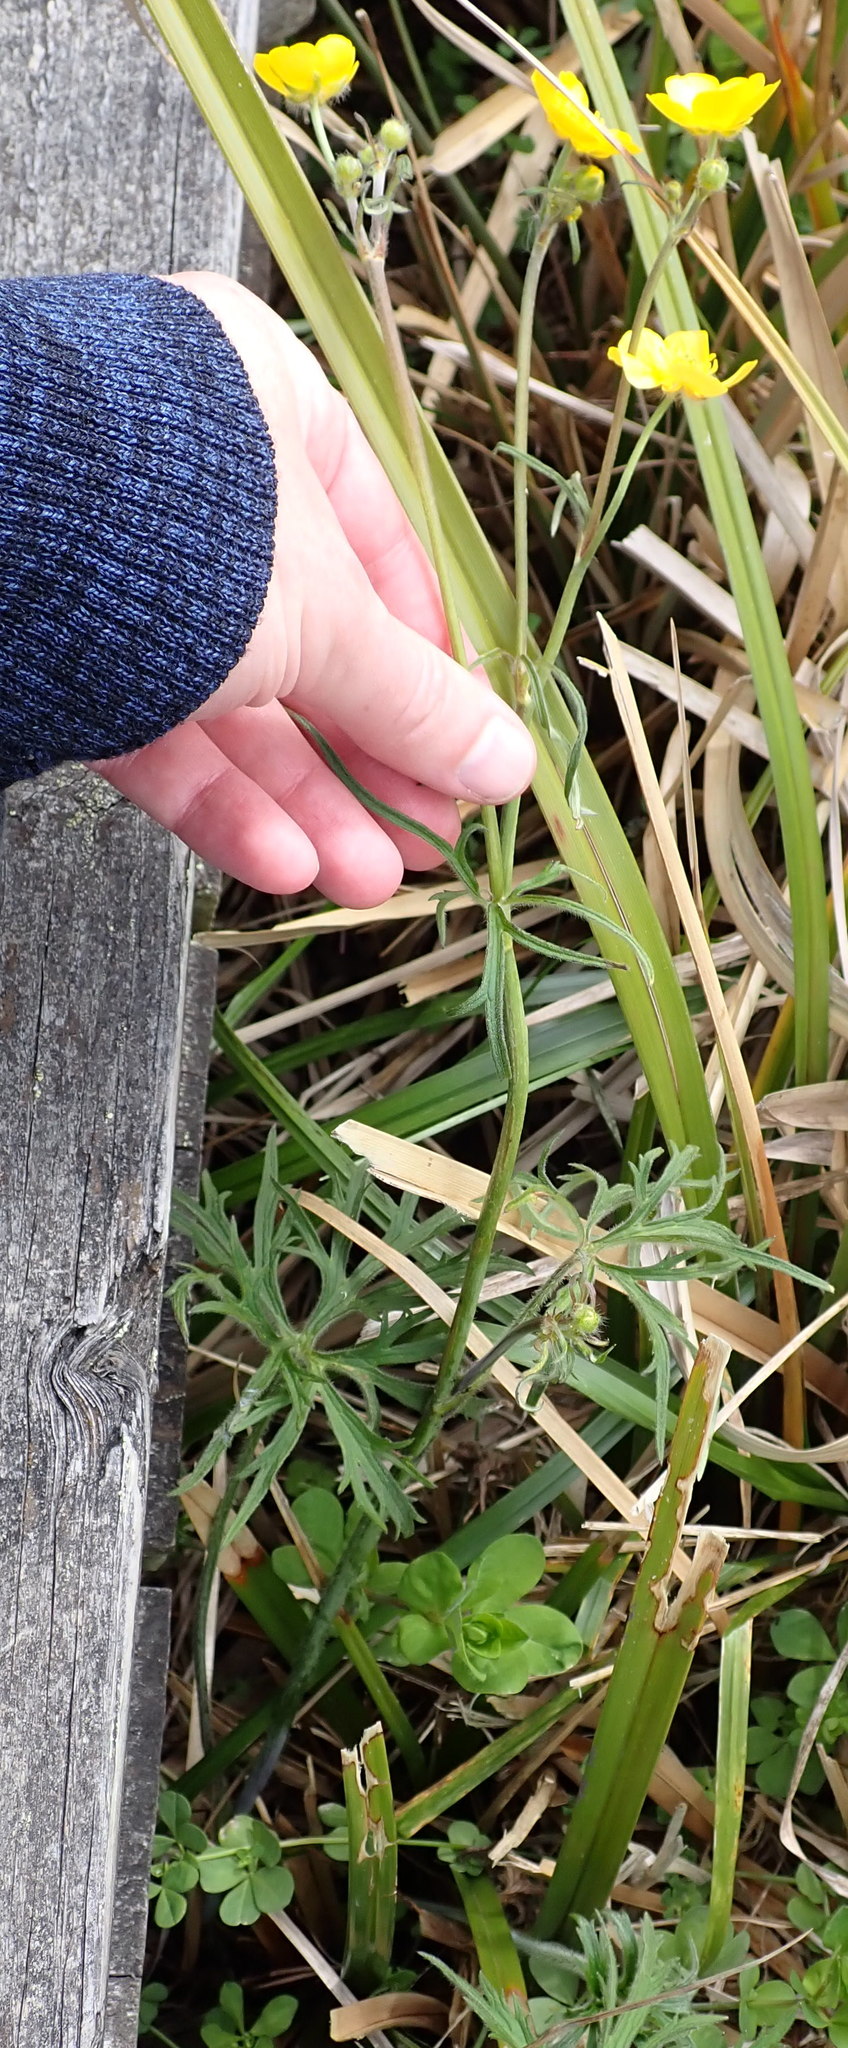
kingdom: Plantae
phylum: Tracheophyta
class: Magnoliopsida
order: Ranunculales
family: Ranunculaceae
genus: Ranunculus
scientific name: Ranunculus acris
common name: Meadow buttercup
